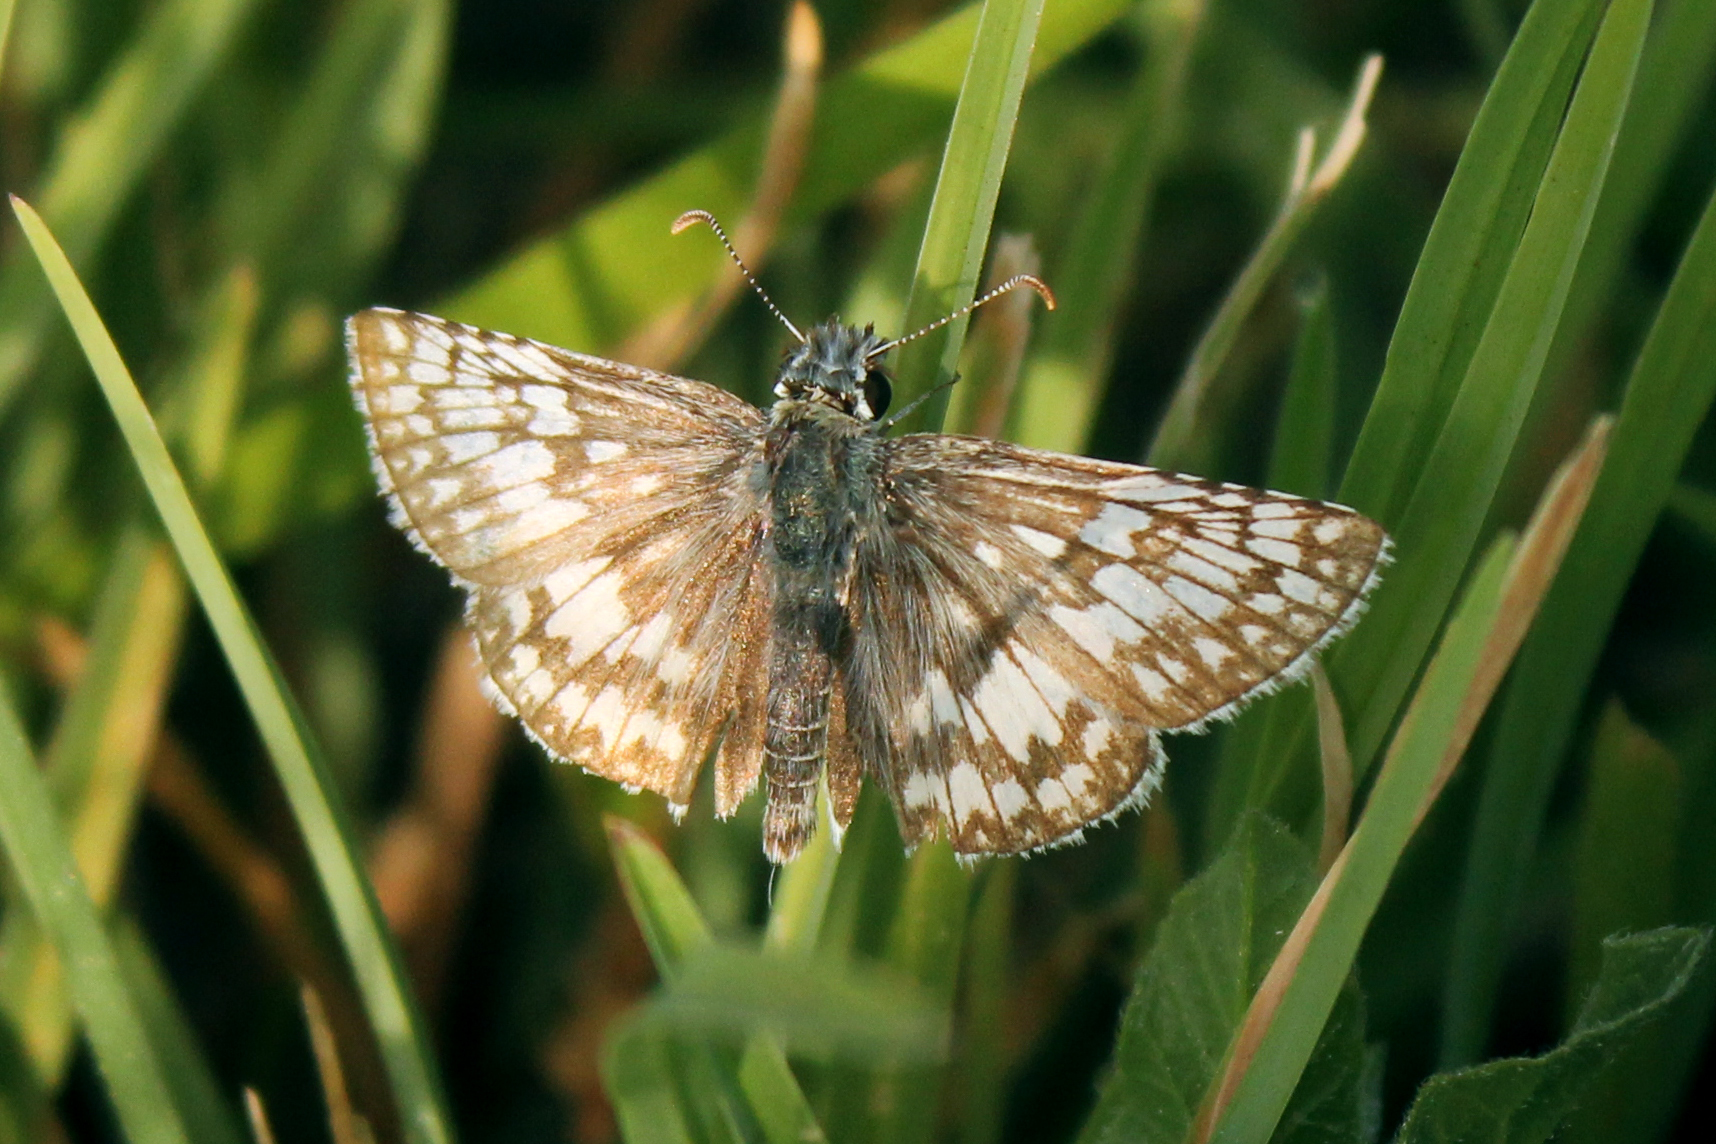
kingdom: Animalia
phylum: Arthropoda
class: Insecta
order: Lepidoptera
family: Hesperiidae
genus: Burnsius
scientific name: Burnsius communis
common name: Common checkered-skipper
